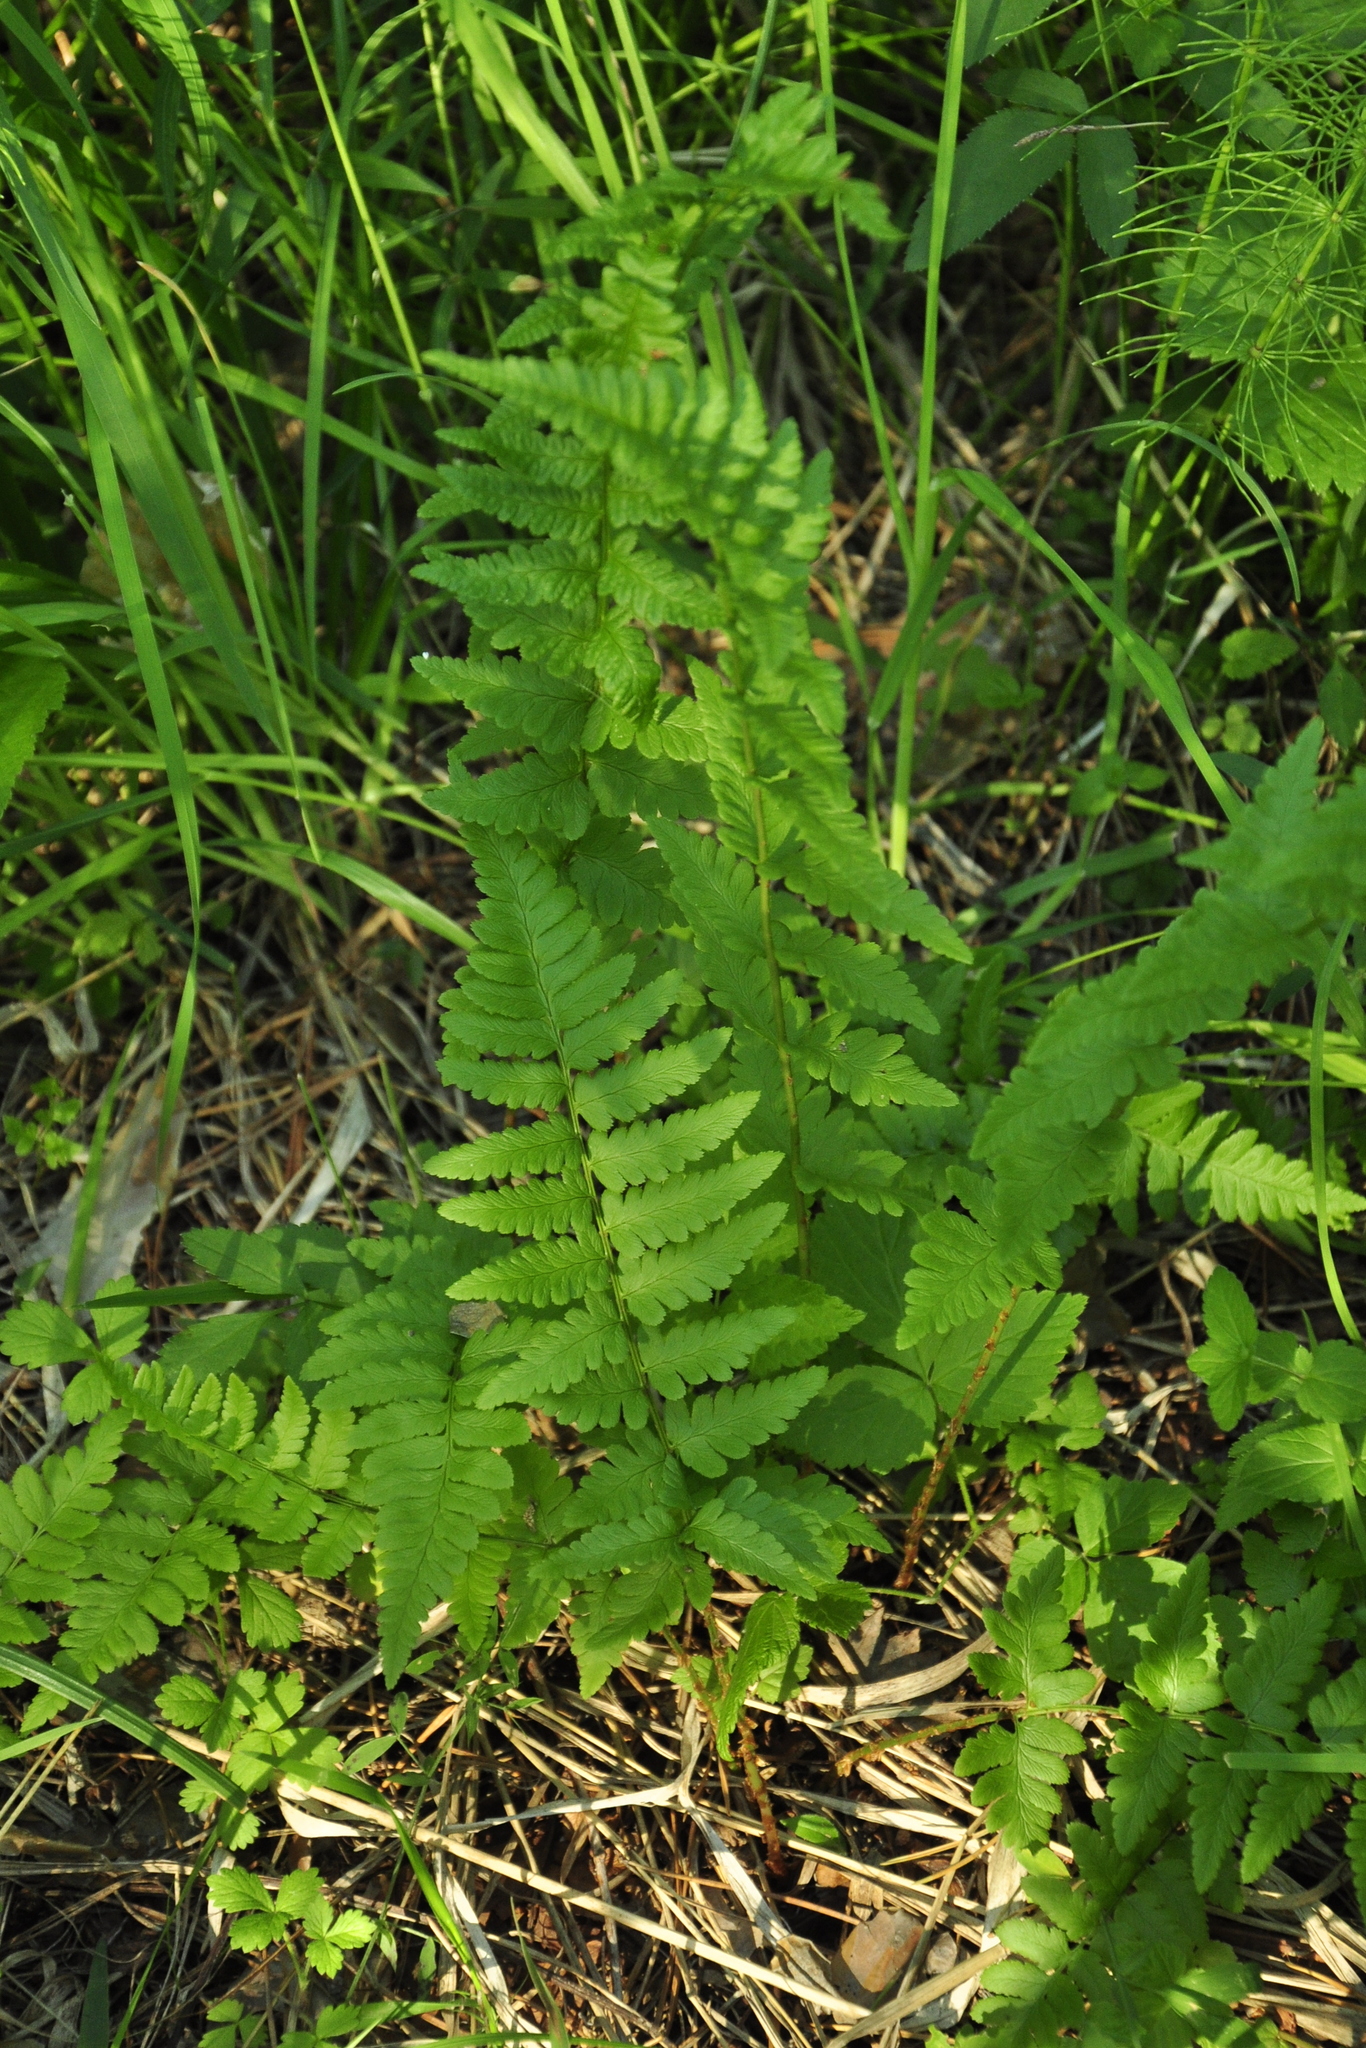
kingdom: Plantae
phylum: Tracheophyta
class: Polypodiopsida
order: Polypodiales
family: Dryopteridaceae
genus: Dryopteris
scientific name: Dryopteris cristata
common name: Crested wood fern
